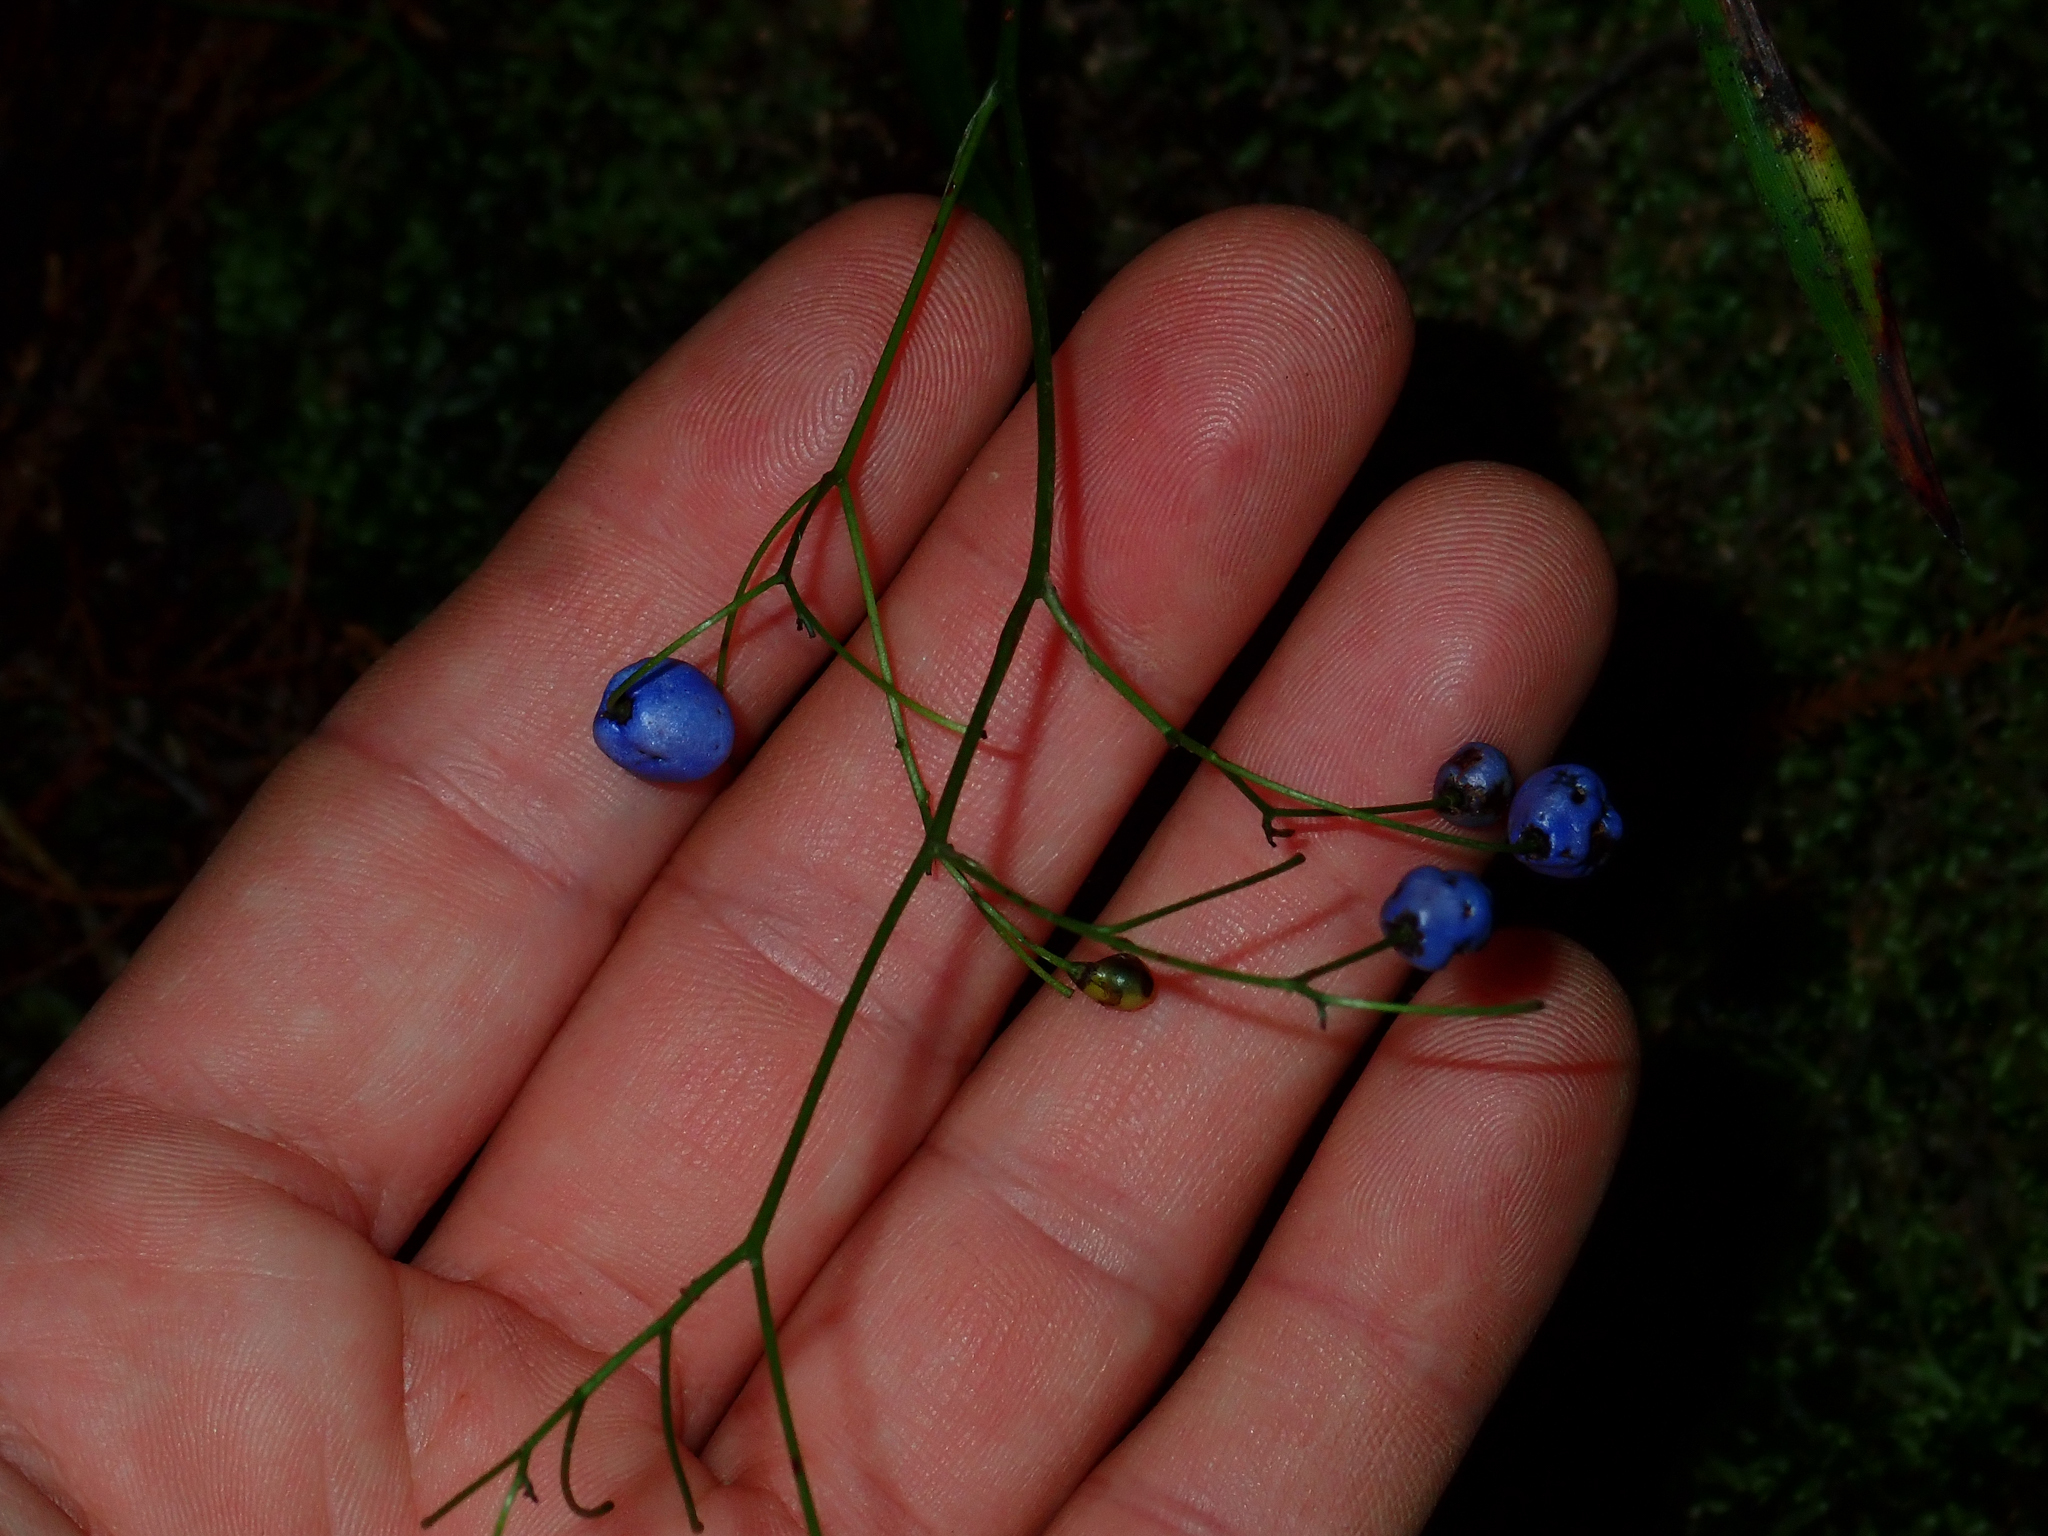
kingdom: Plantae
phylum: Tracheophyta
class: Liliopsida
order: Asparagales
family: Asphodelaceae
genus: Dianella
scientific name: Dianella nigra
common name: New zealand-blueberry
